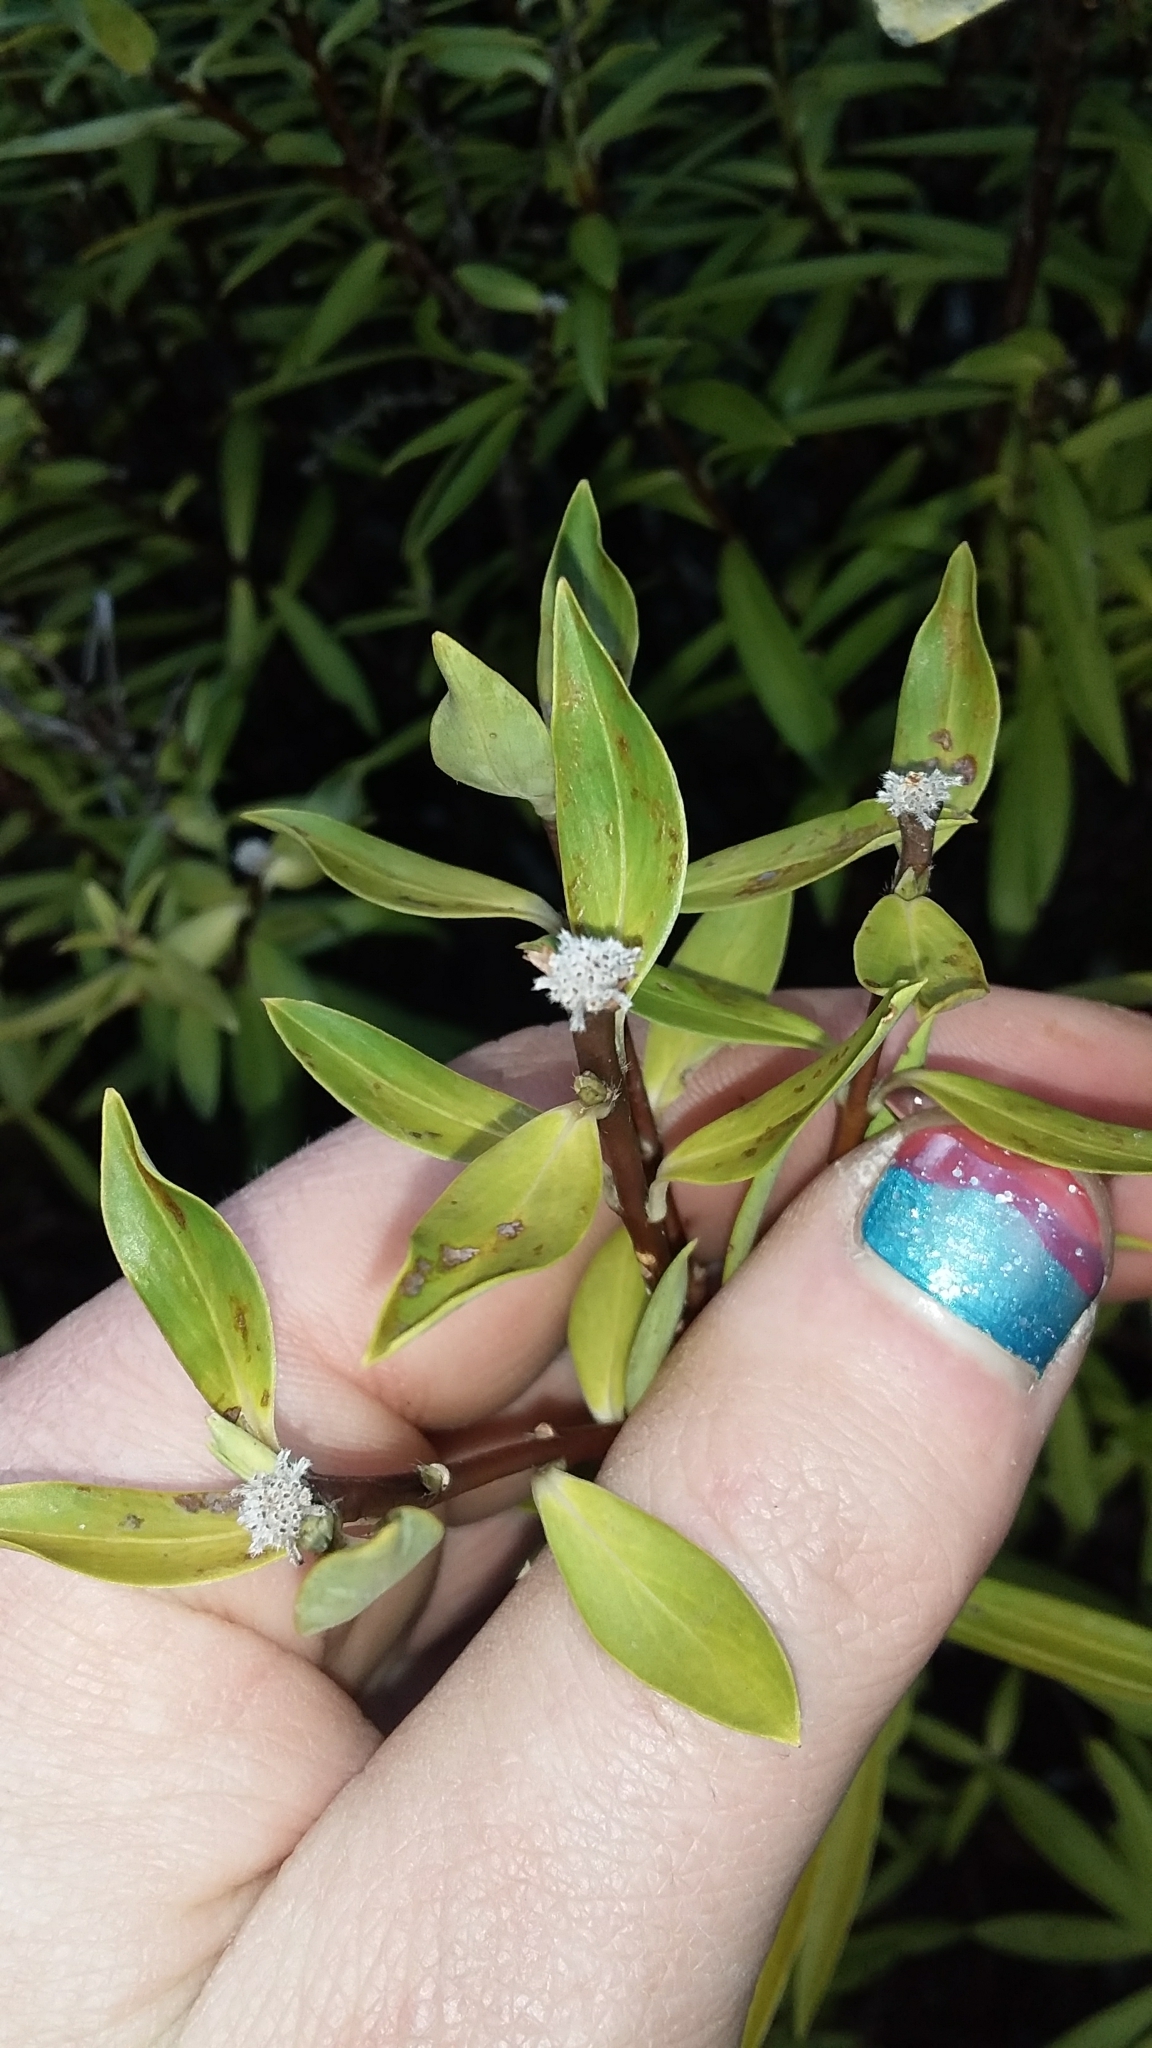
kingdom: Plantae
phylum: Tracheophyta
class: Magnoliopsida
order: Malvales
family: Thymelaeaceae
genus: Pimelea
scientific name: Pimelea longifolia
